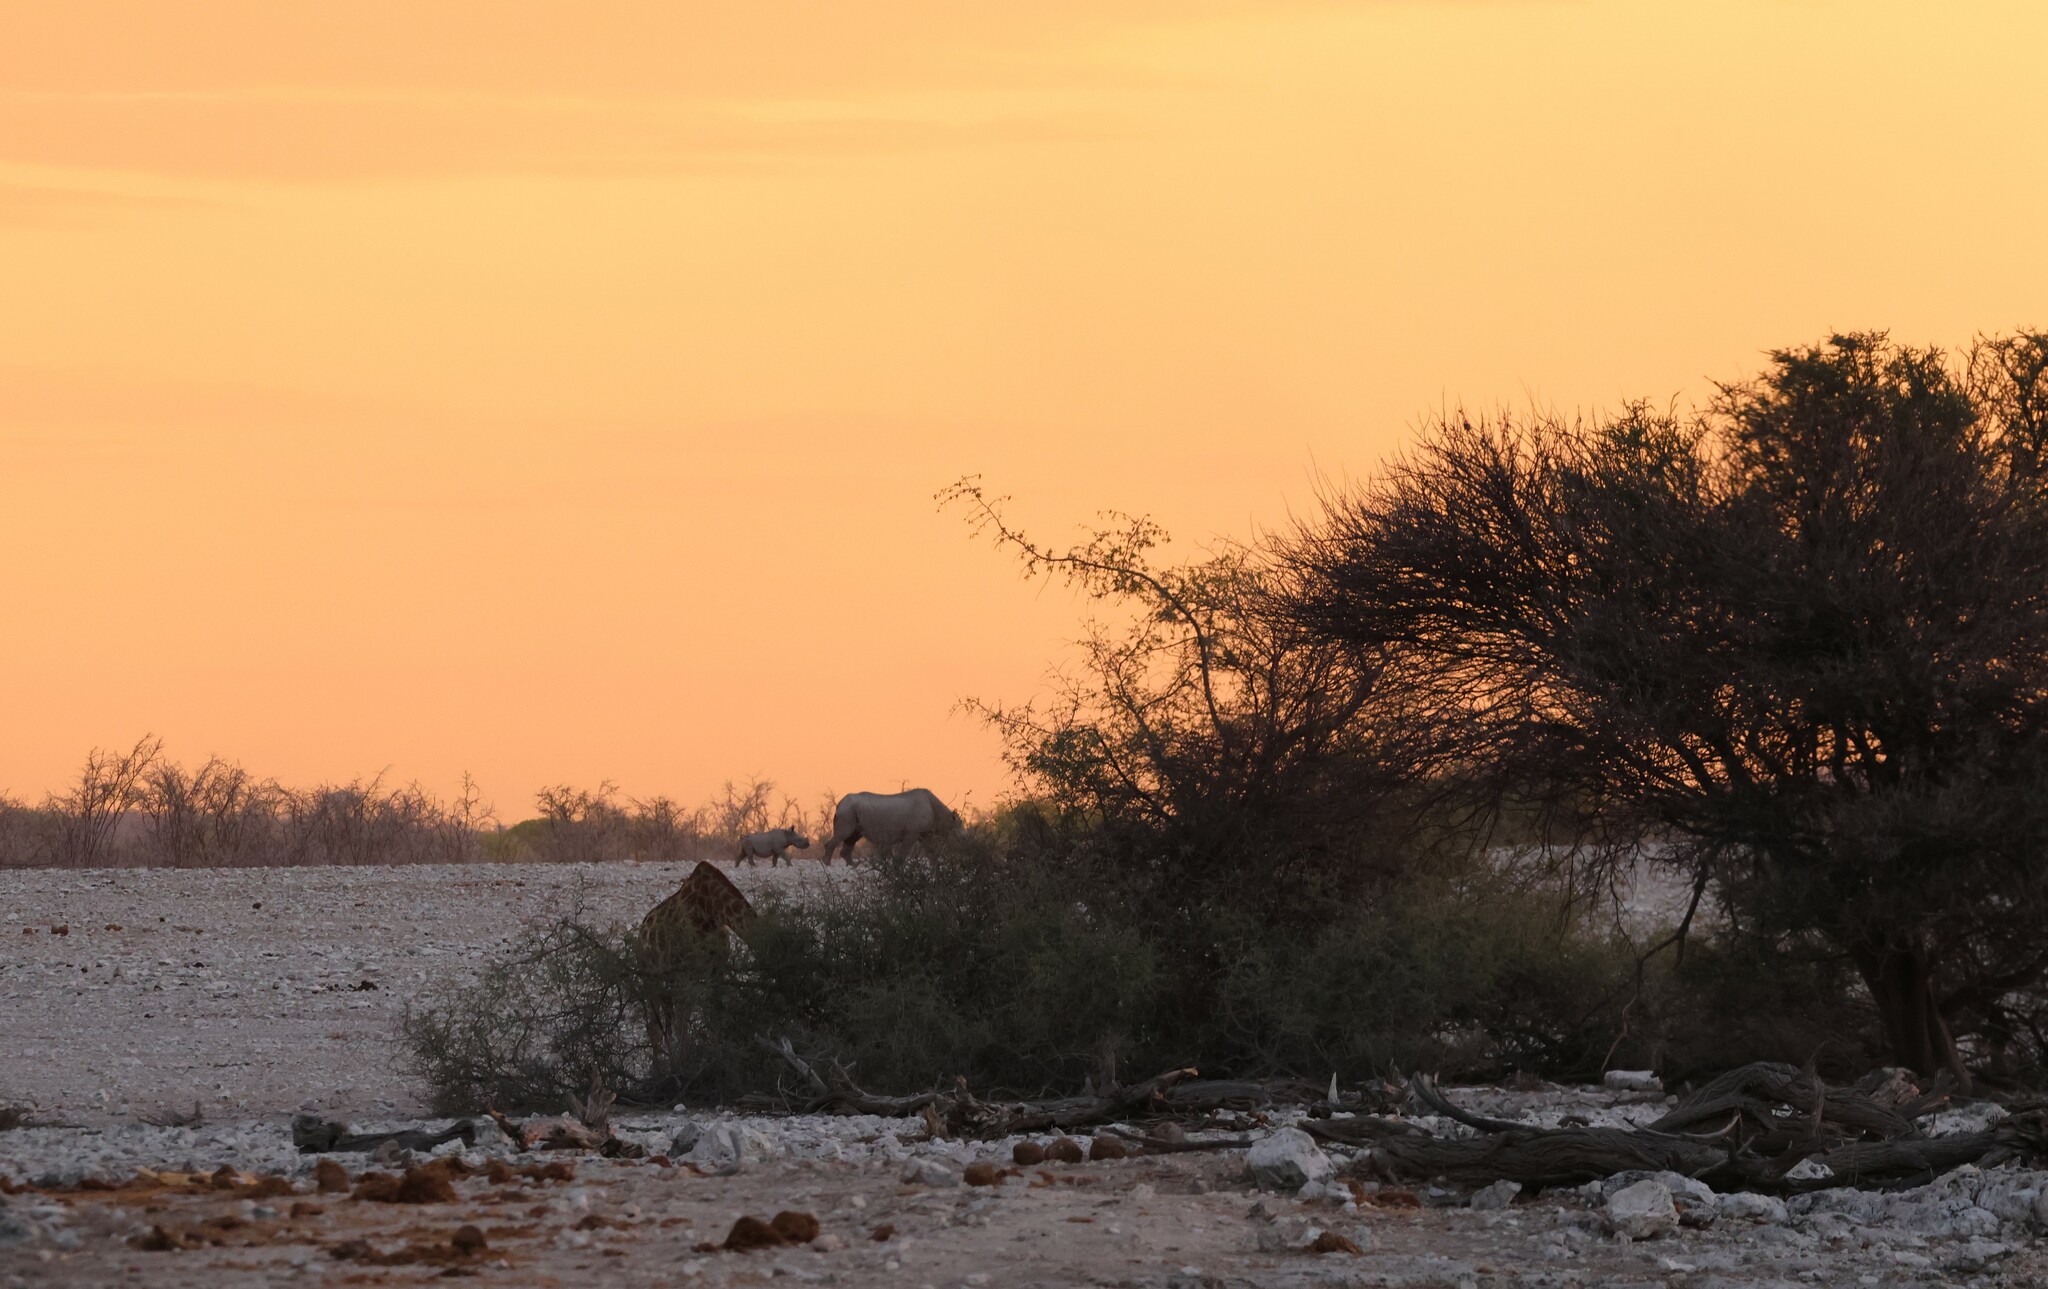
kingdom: Animalia
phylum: Chordata
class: Mammalia
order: Perissodactyla
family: Rhinocerotidae
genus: Diceros
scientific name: Diceros bicornis
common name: Black rhinoceros
